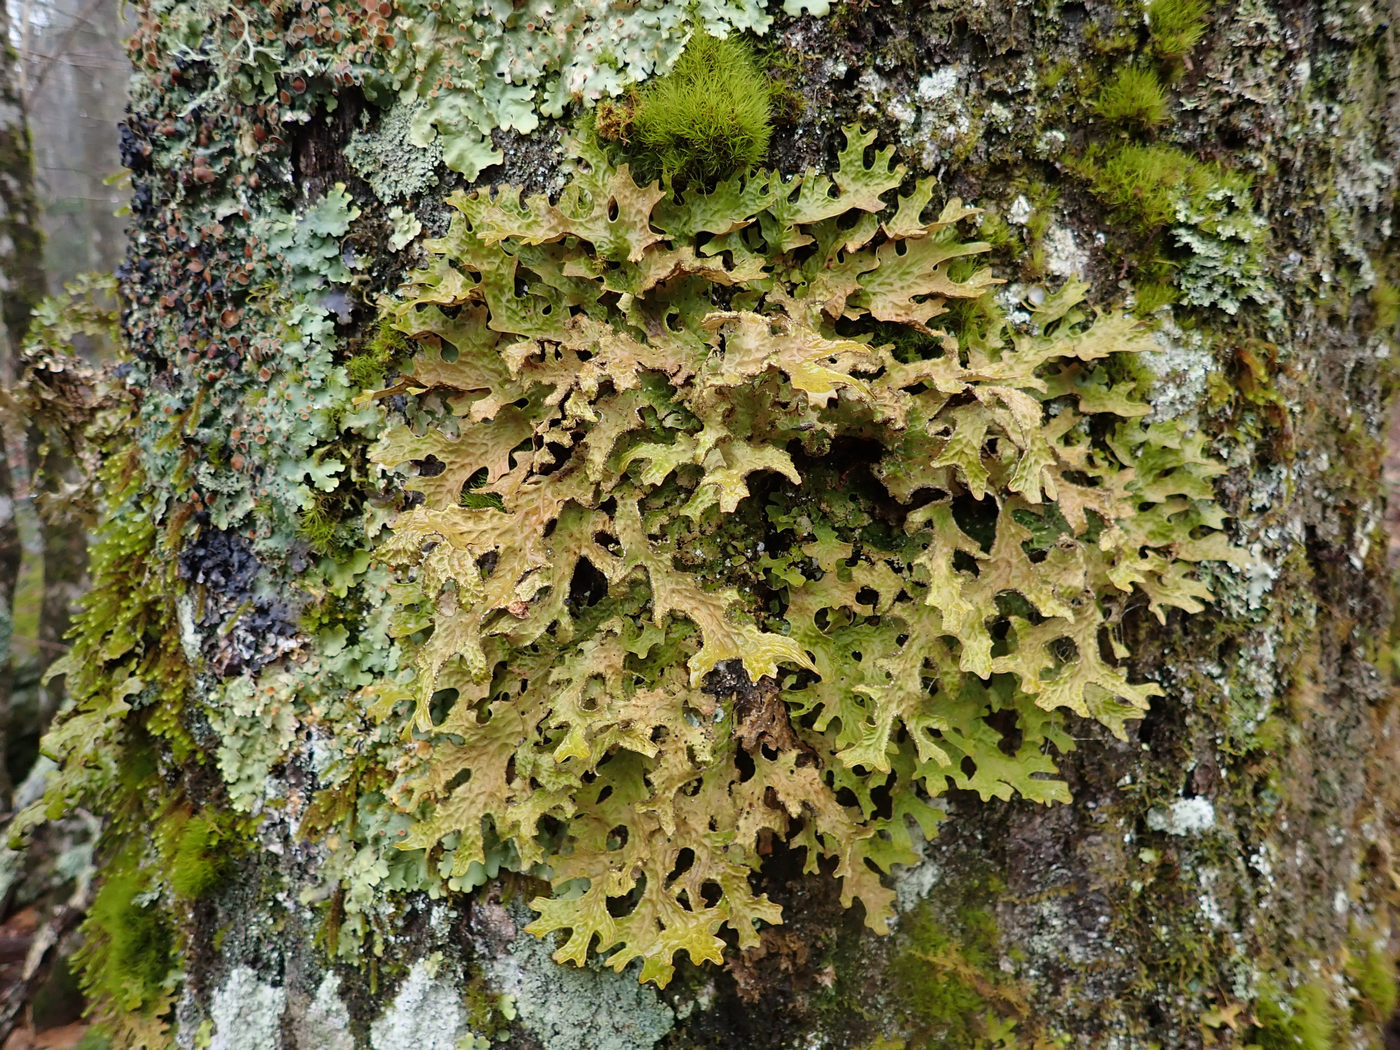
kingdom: Fungi
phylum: Ascomycota
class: Lecanoromycetes
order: Peltigerales
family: Lobariaceae
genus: Lobaria
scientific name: Lobaria pulmonaria
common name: Lungwort
